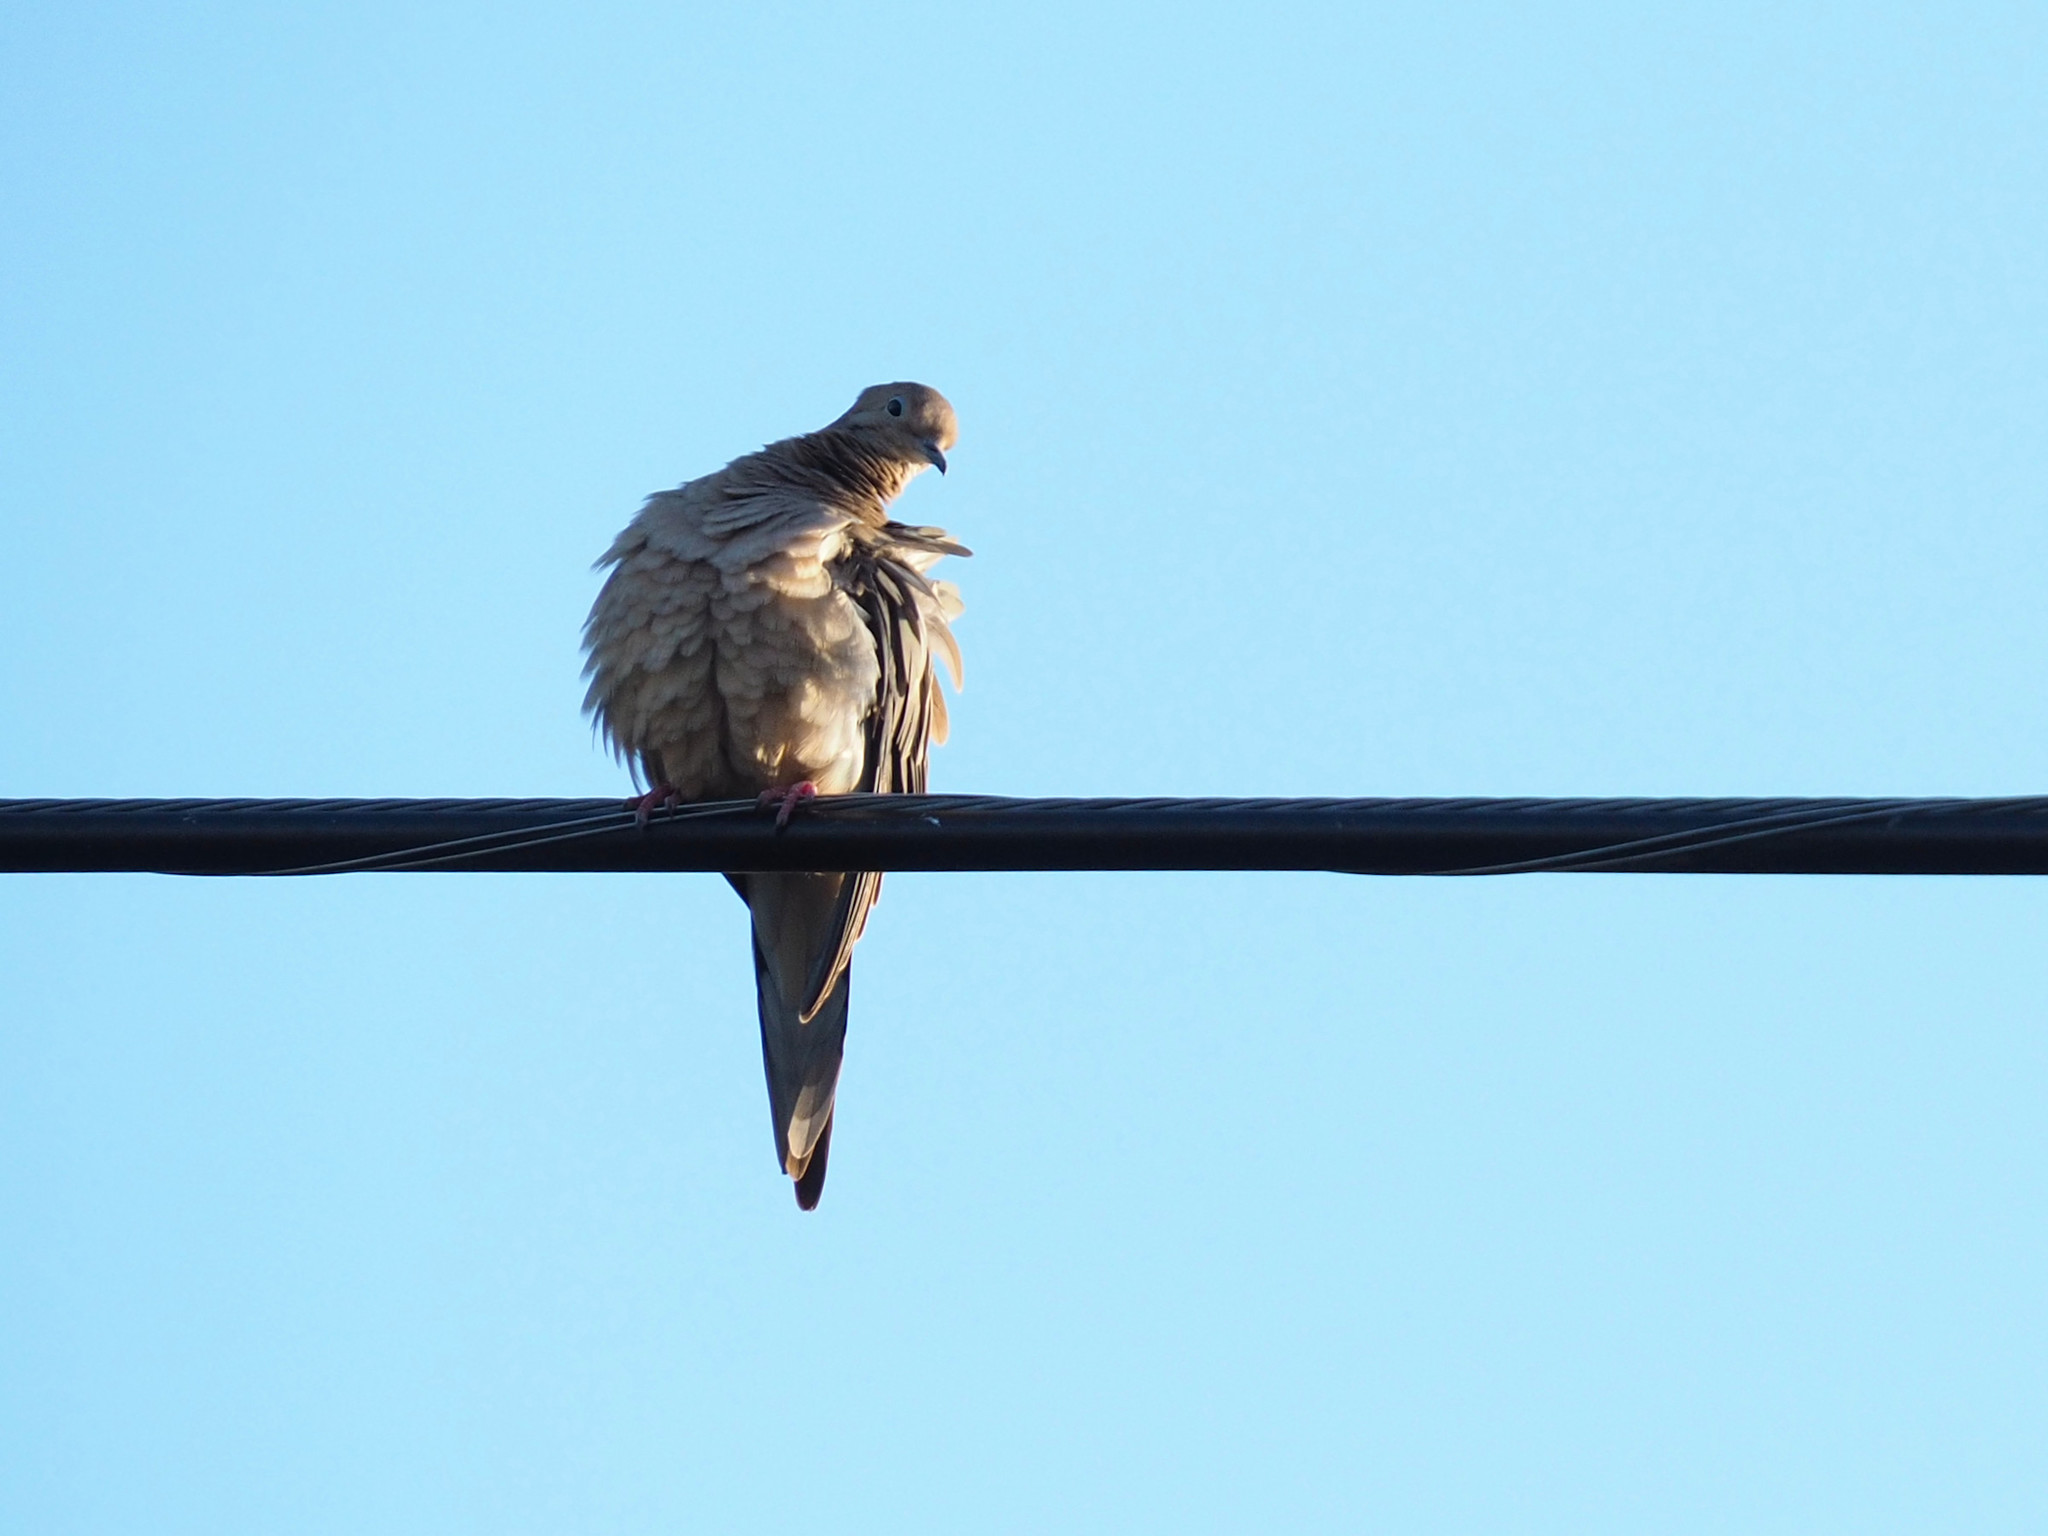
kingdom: Animalia
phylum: Chordata
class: Aves
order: Columbiformes
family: Columbidae
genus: Zenaida
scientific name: Zenaida macroura
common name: Mourning dove
